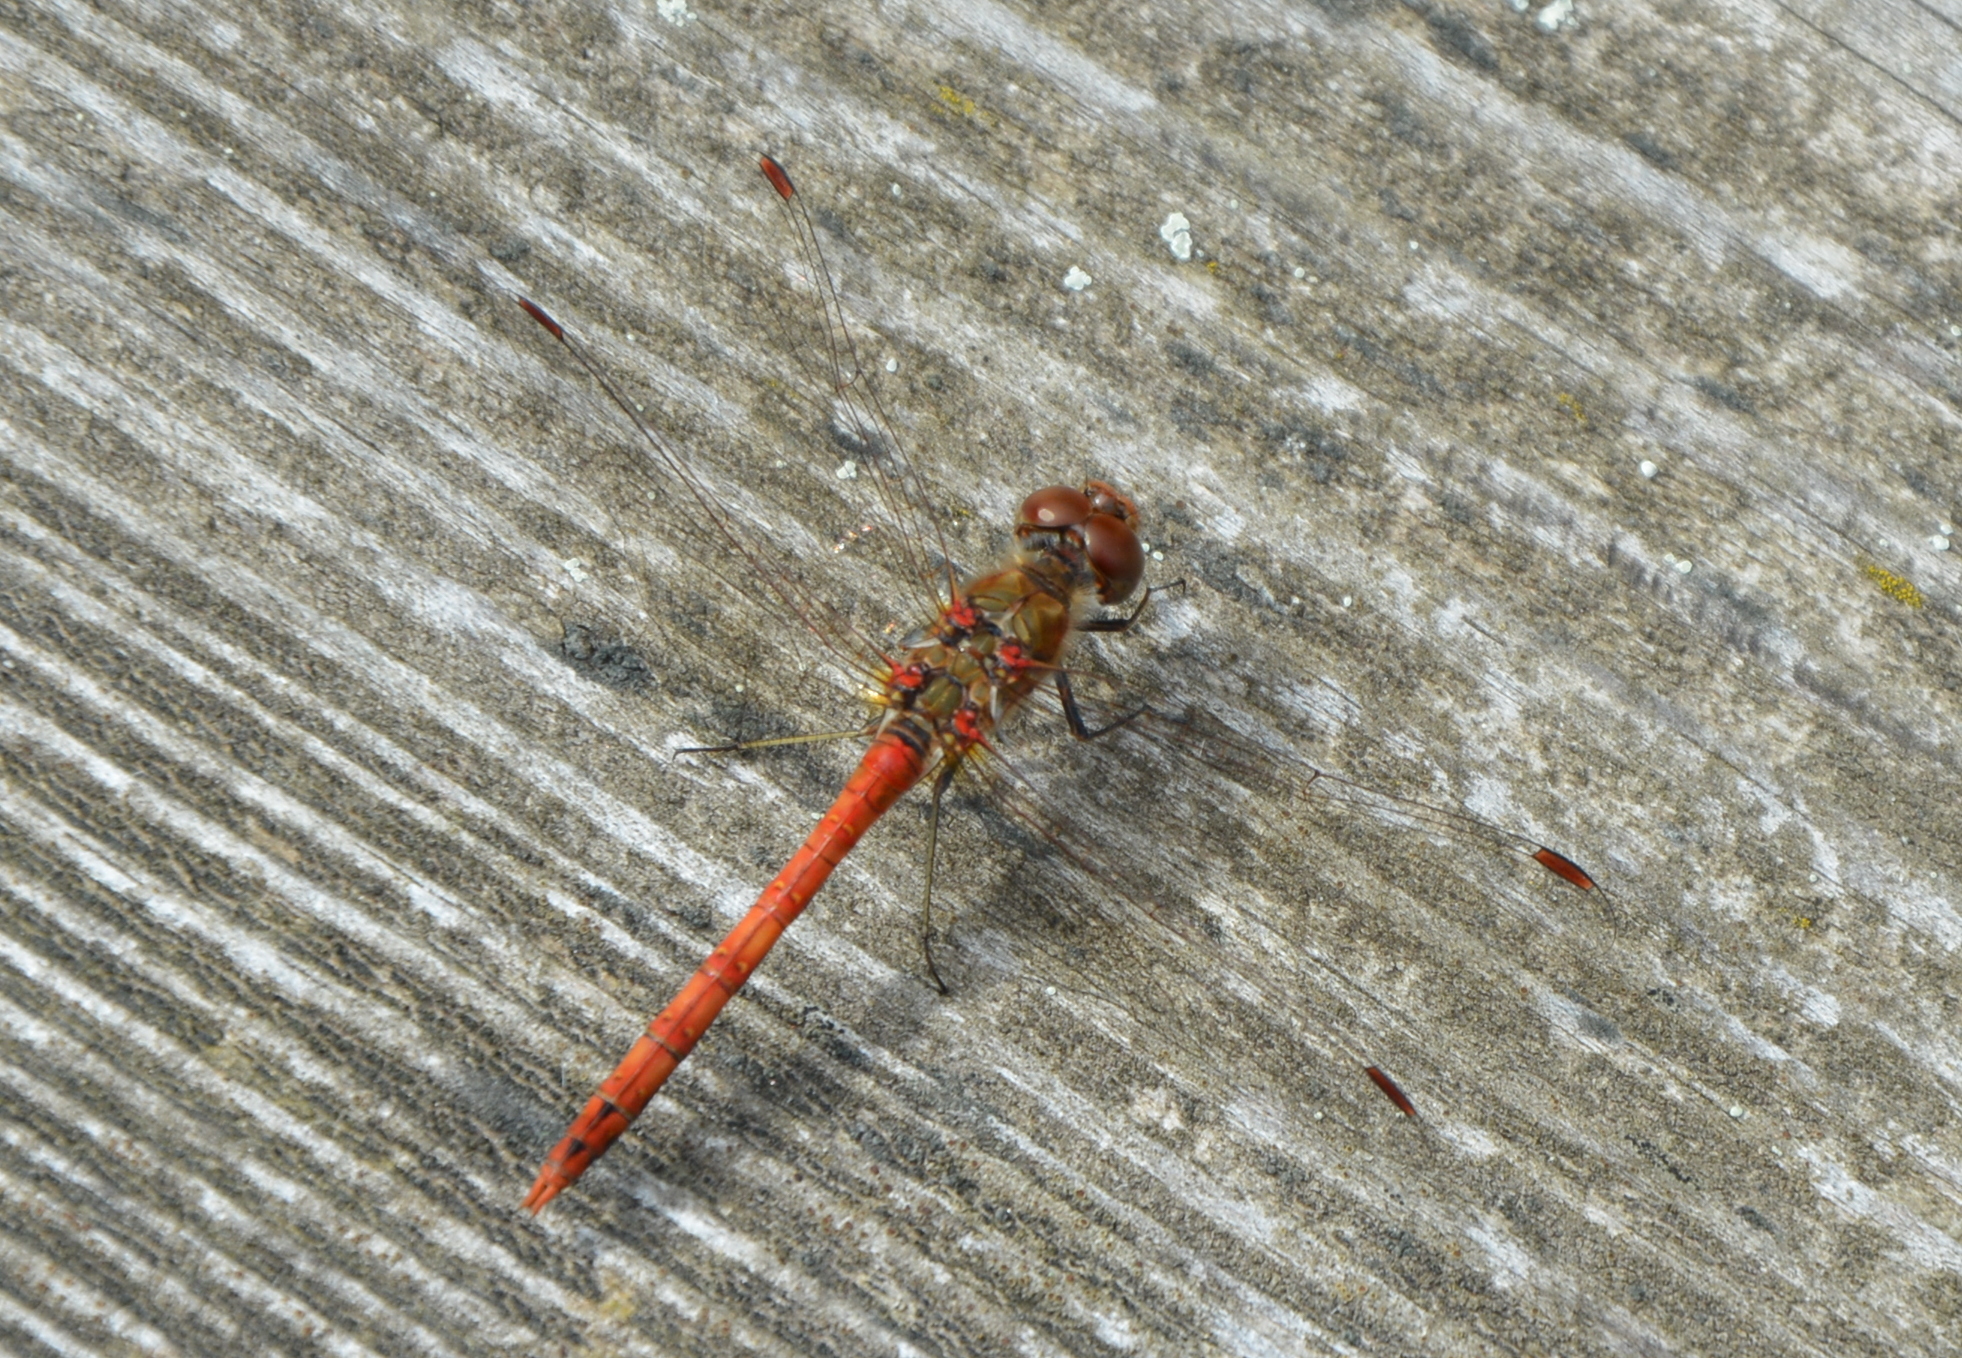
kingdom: Animalia
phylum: Arthropoda
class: Insecta
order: Odonata
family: Libellulidae
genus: Sympetrum
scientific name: Sympetrum striolatum
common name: Common darter
